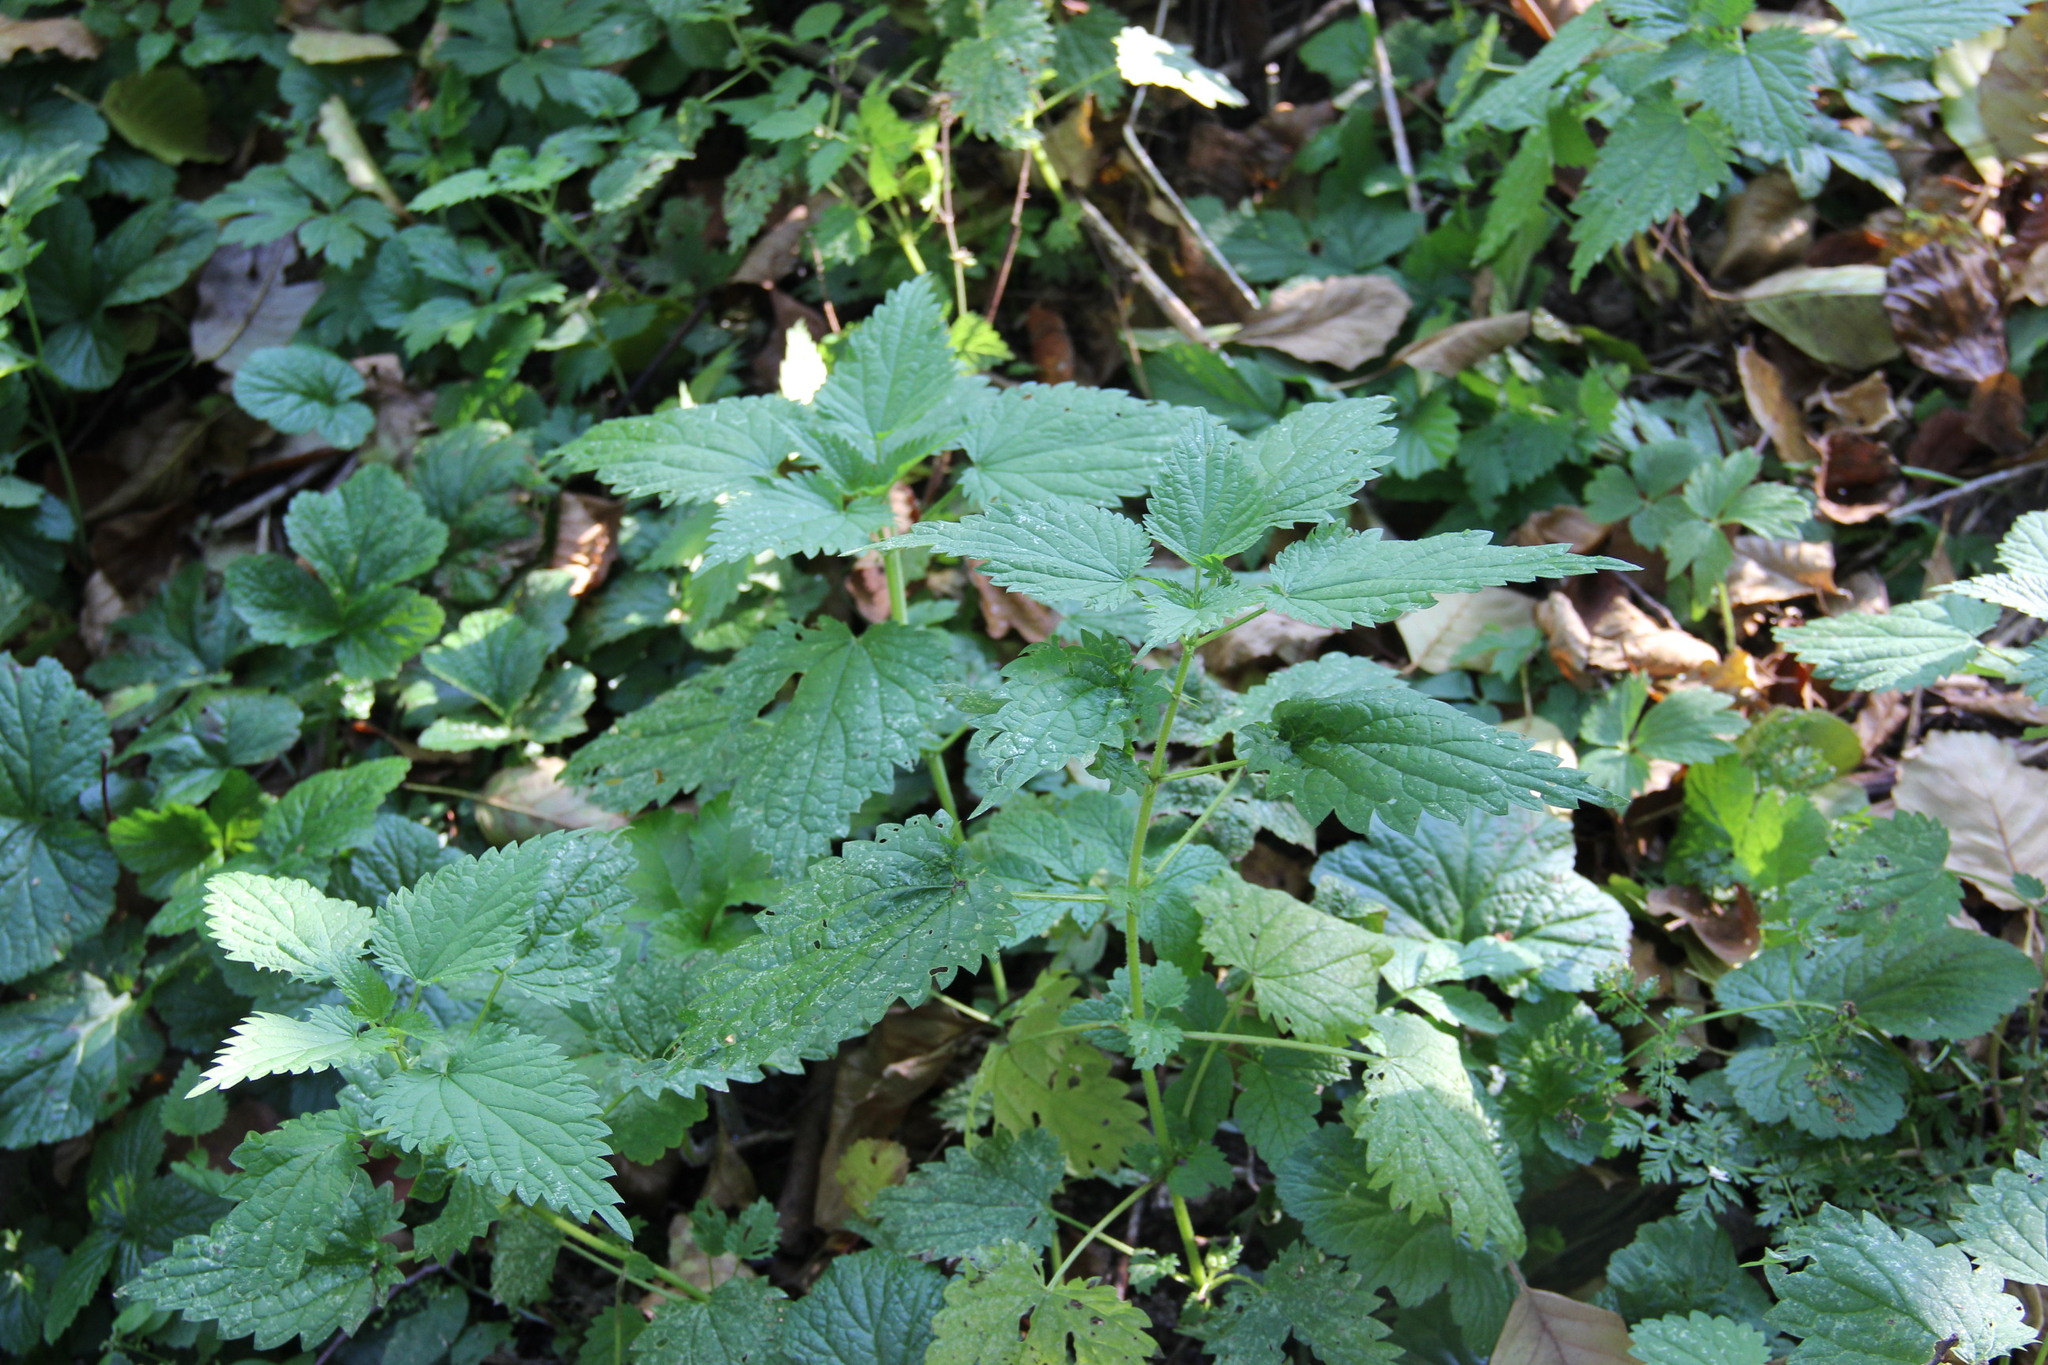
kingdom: Plantae
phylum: Tracheophyta
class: Magnoliopsida
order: Rosales
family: Urticaceae
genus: Urtica
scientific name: Urtica dioica
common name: Common nettle
